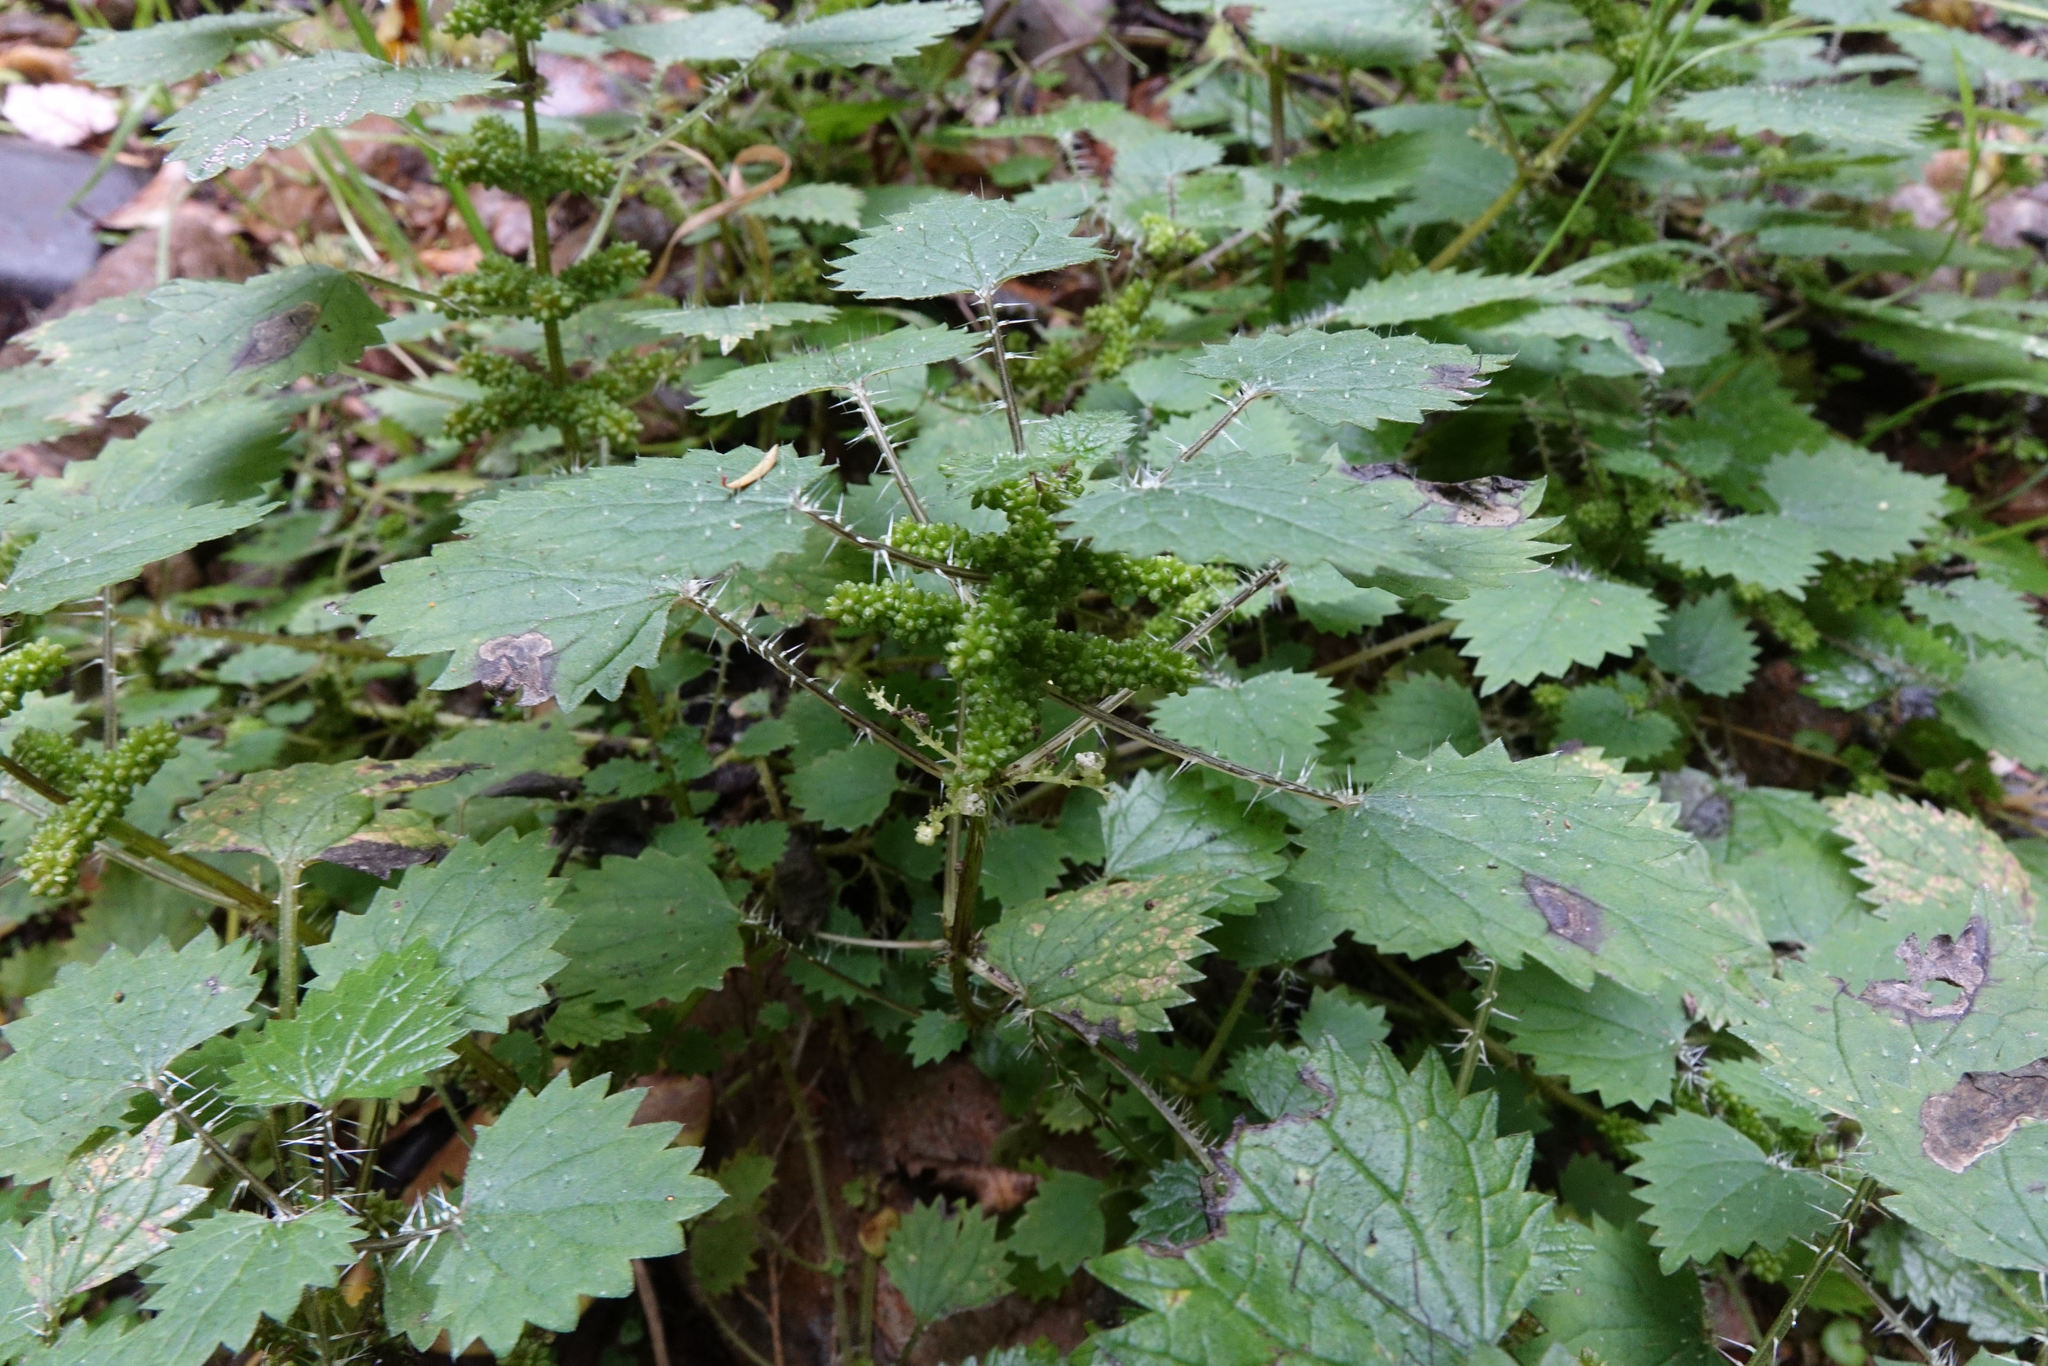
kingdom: Plantae
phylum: Tracheophyta
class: Magnoliopsida
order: Rosales
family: Urticaceae
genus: Urtica
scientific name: Urtica sykesii
